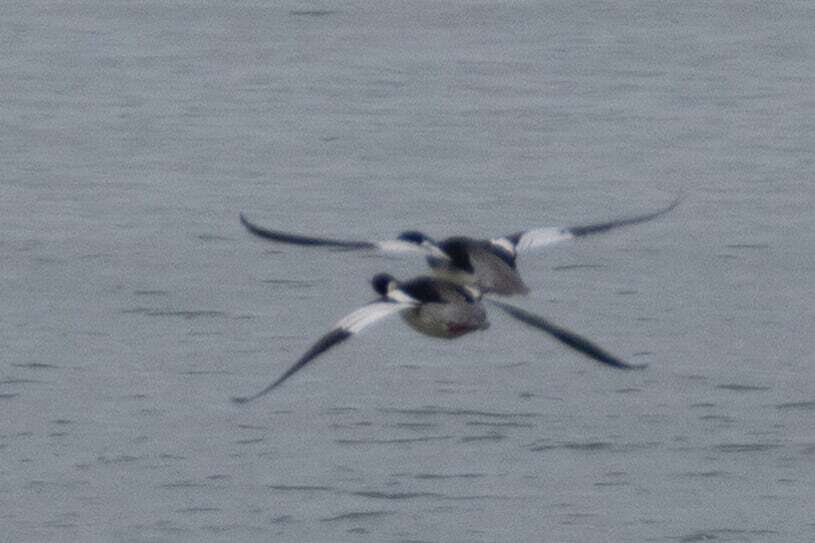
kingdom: Animalia
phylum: Chordata
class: Aves
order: Anseriformes
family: Anatidae
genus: Mergus
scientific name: Mergus serrator
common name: Red-breasted merganser
